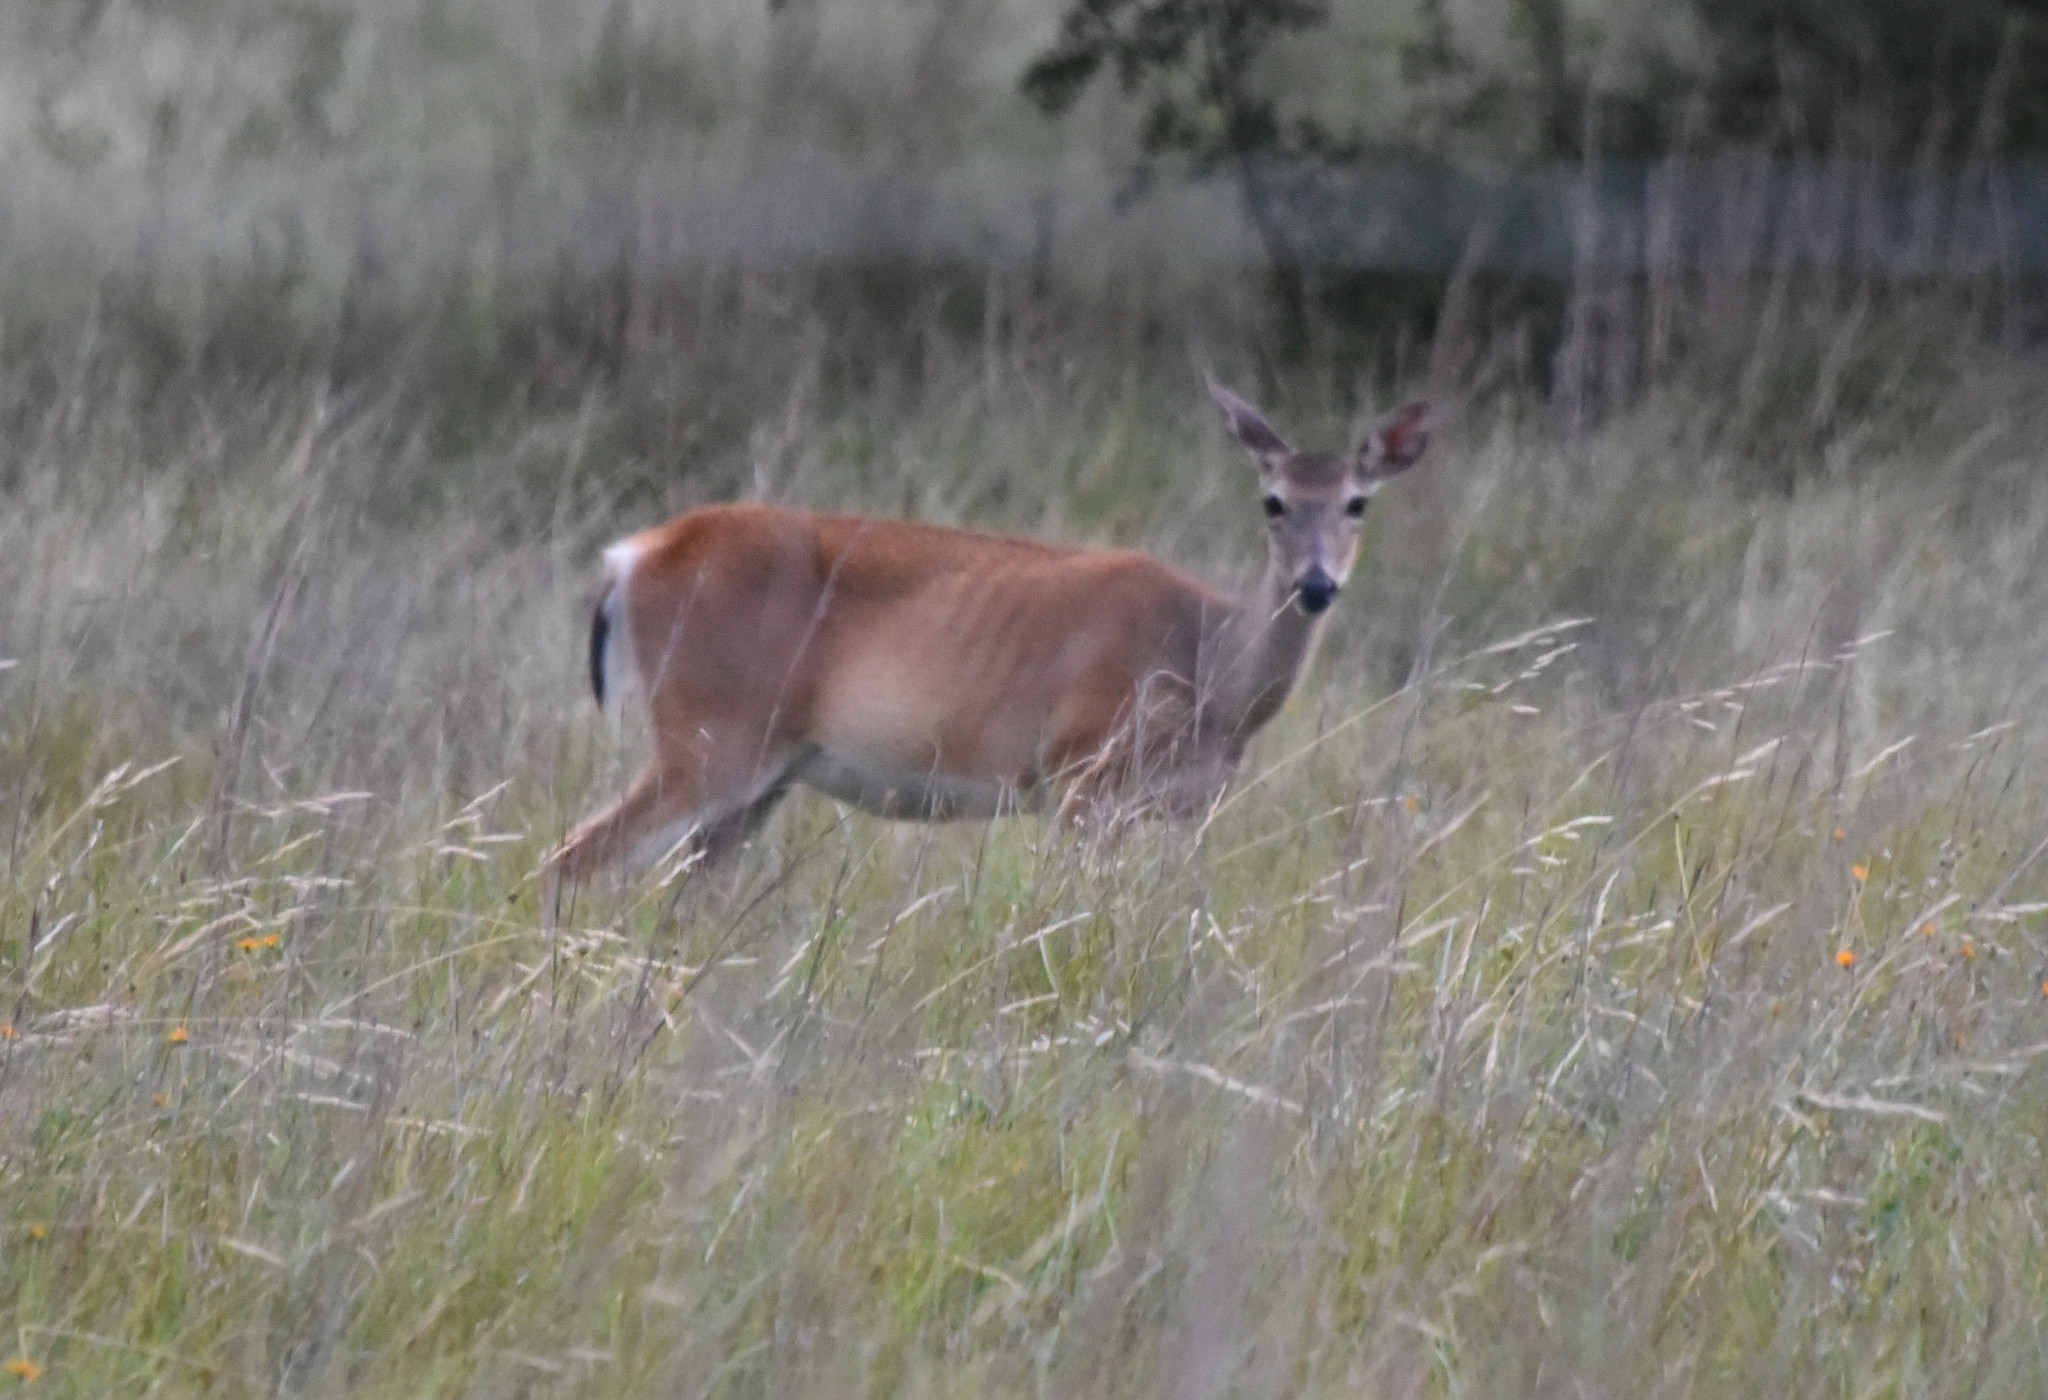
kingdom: Animalia
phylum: Chordata
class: Mammalia
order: Artiodactyla
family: Cervidae
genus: Odocoileus
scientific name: Odocoileus virginianus
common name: White-tailed deer
